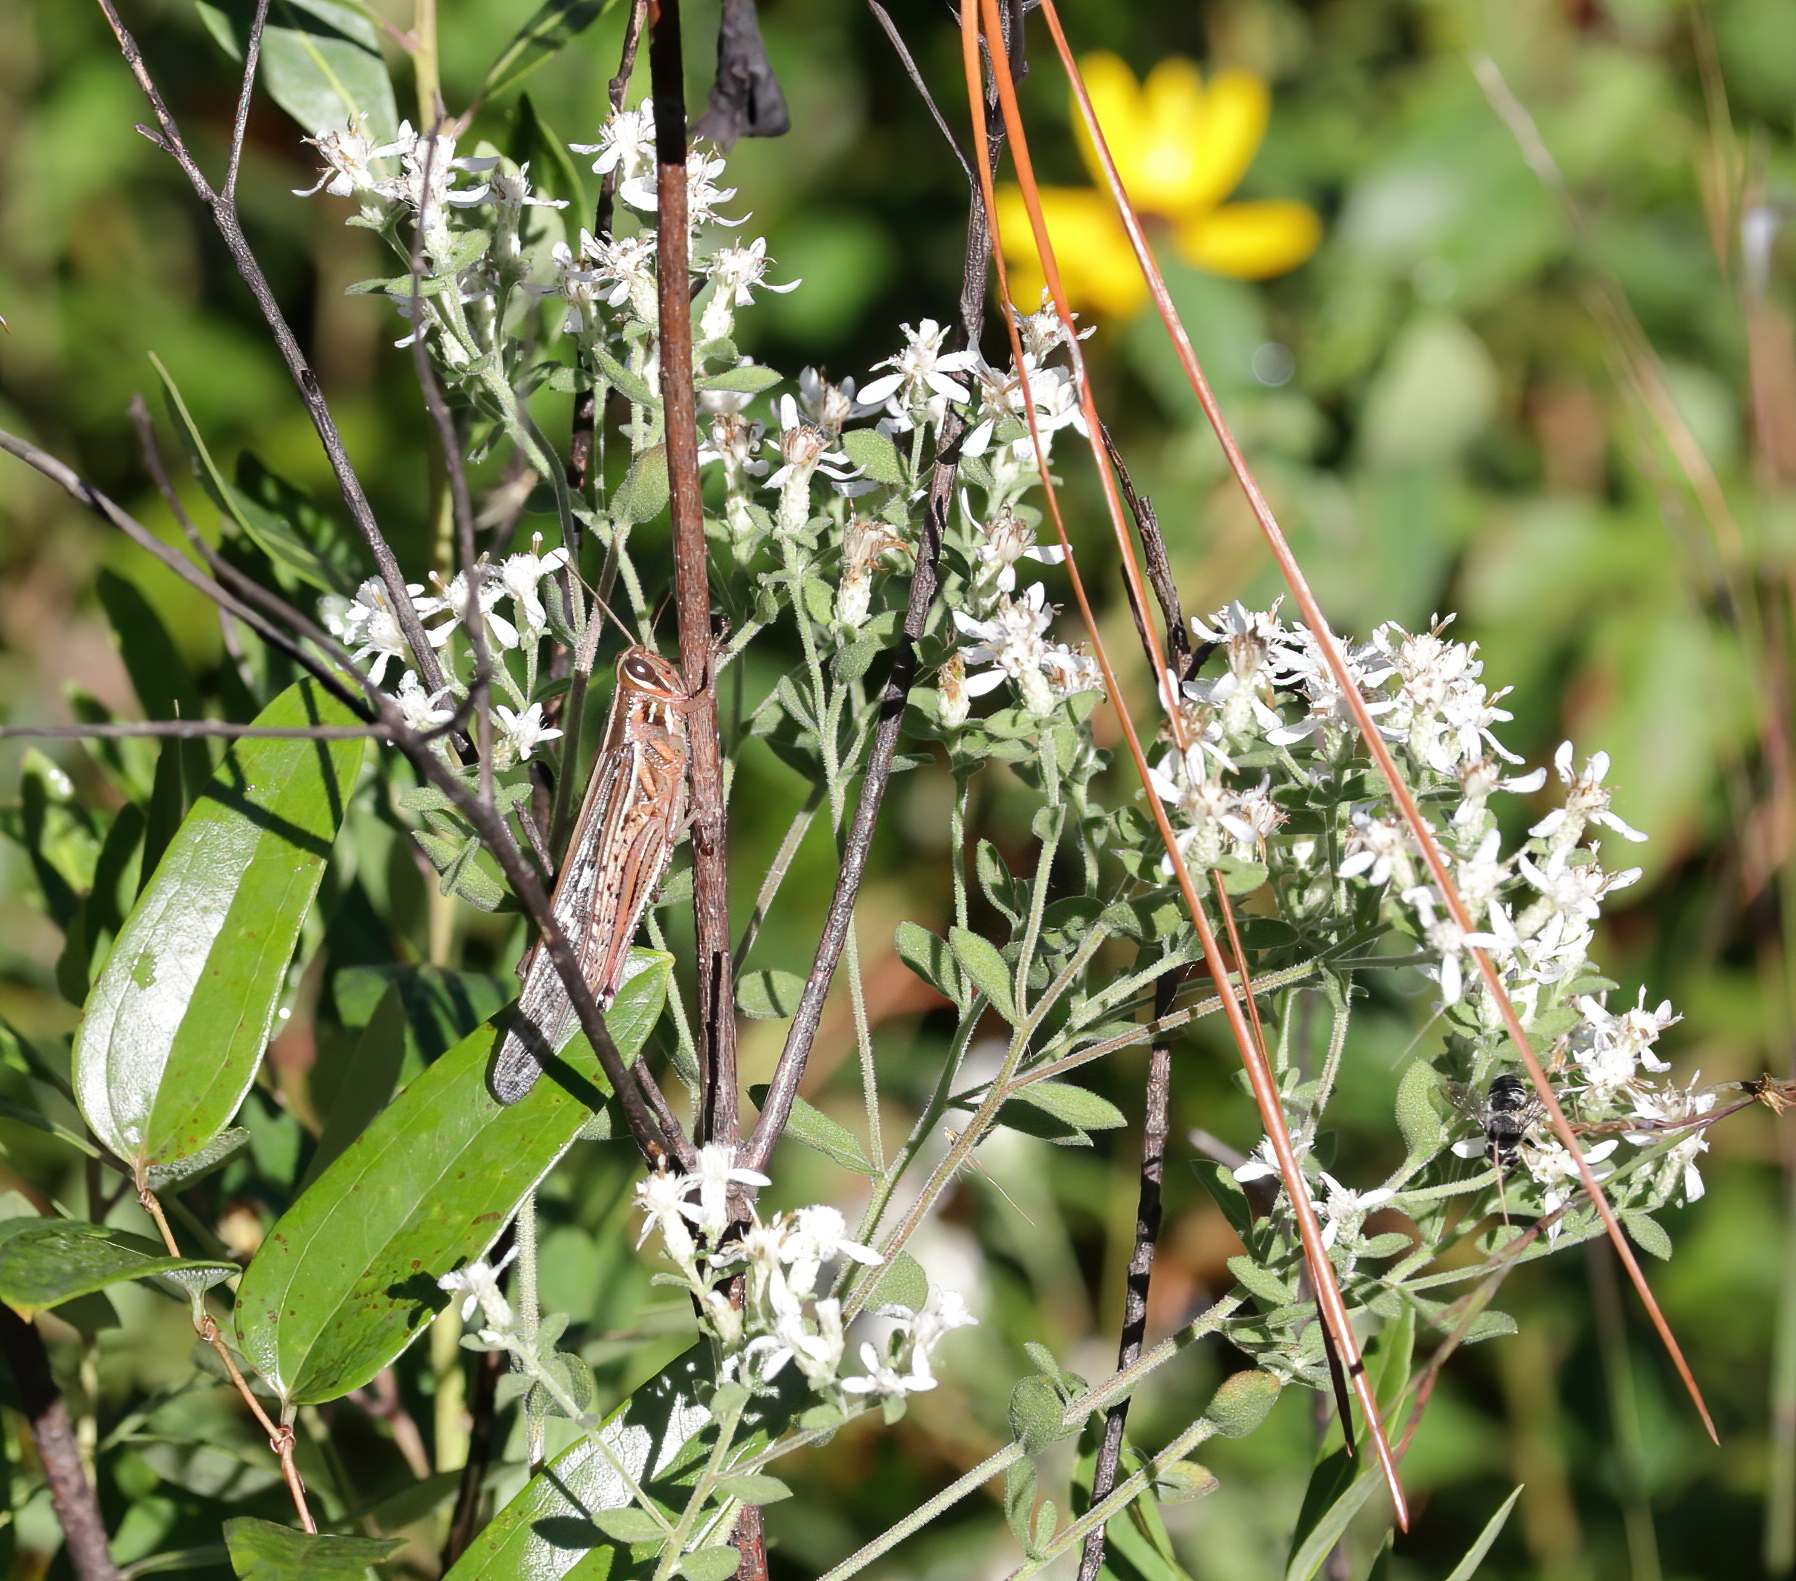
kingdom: Animalia
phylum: Arthropoda
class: Insecta
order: Orthoptera
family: Acrididae
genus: Schistocerca
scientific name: Schistocerca americana
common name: American bird locust
